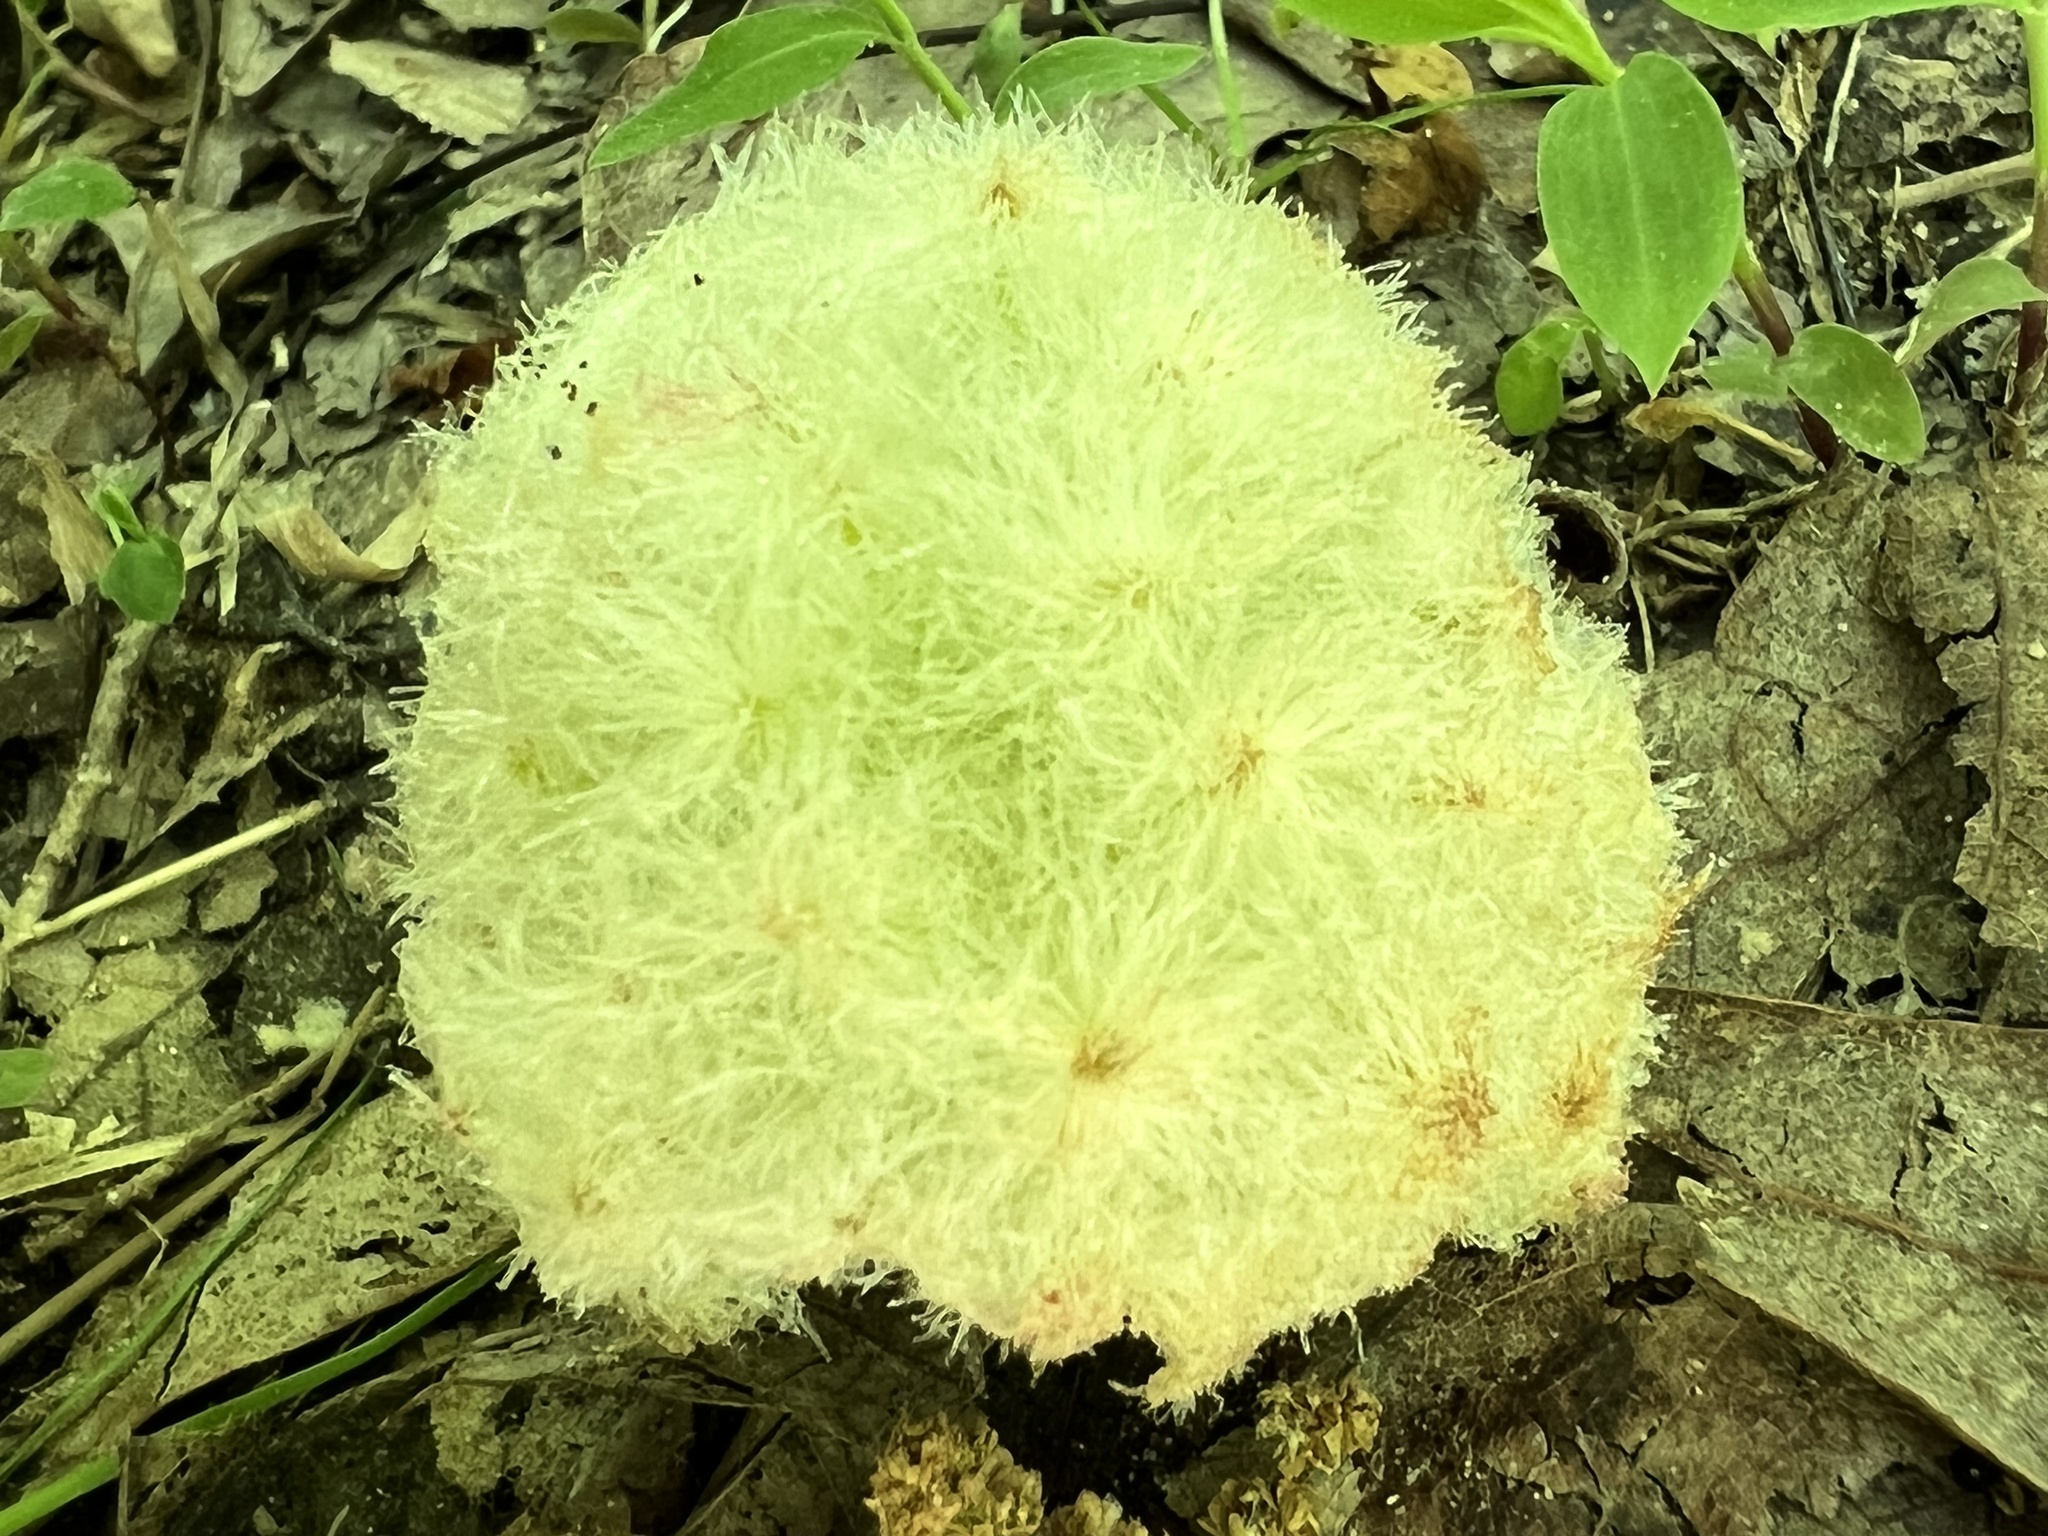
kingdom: Animalia
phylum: Arthropoda
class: Insecta
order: Hymenoptera
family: Cynipidae
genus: Callirhytis
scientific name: Callirhytis
